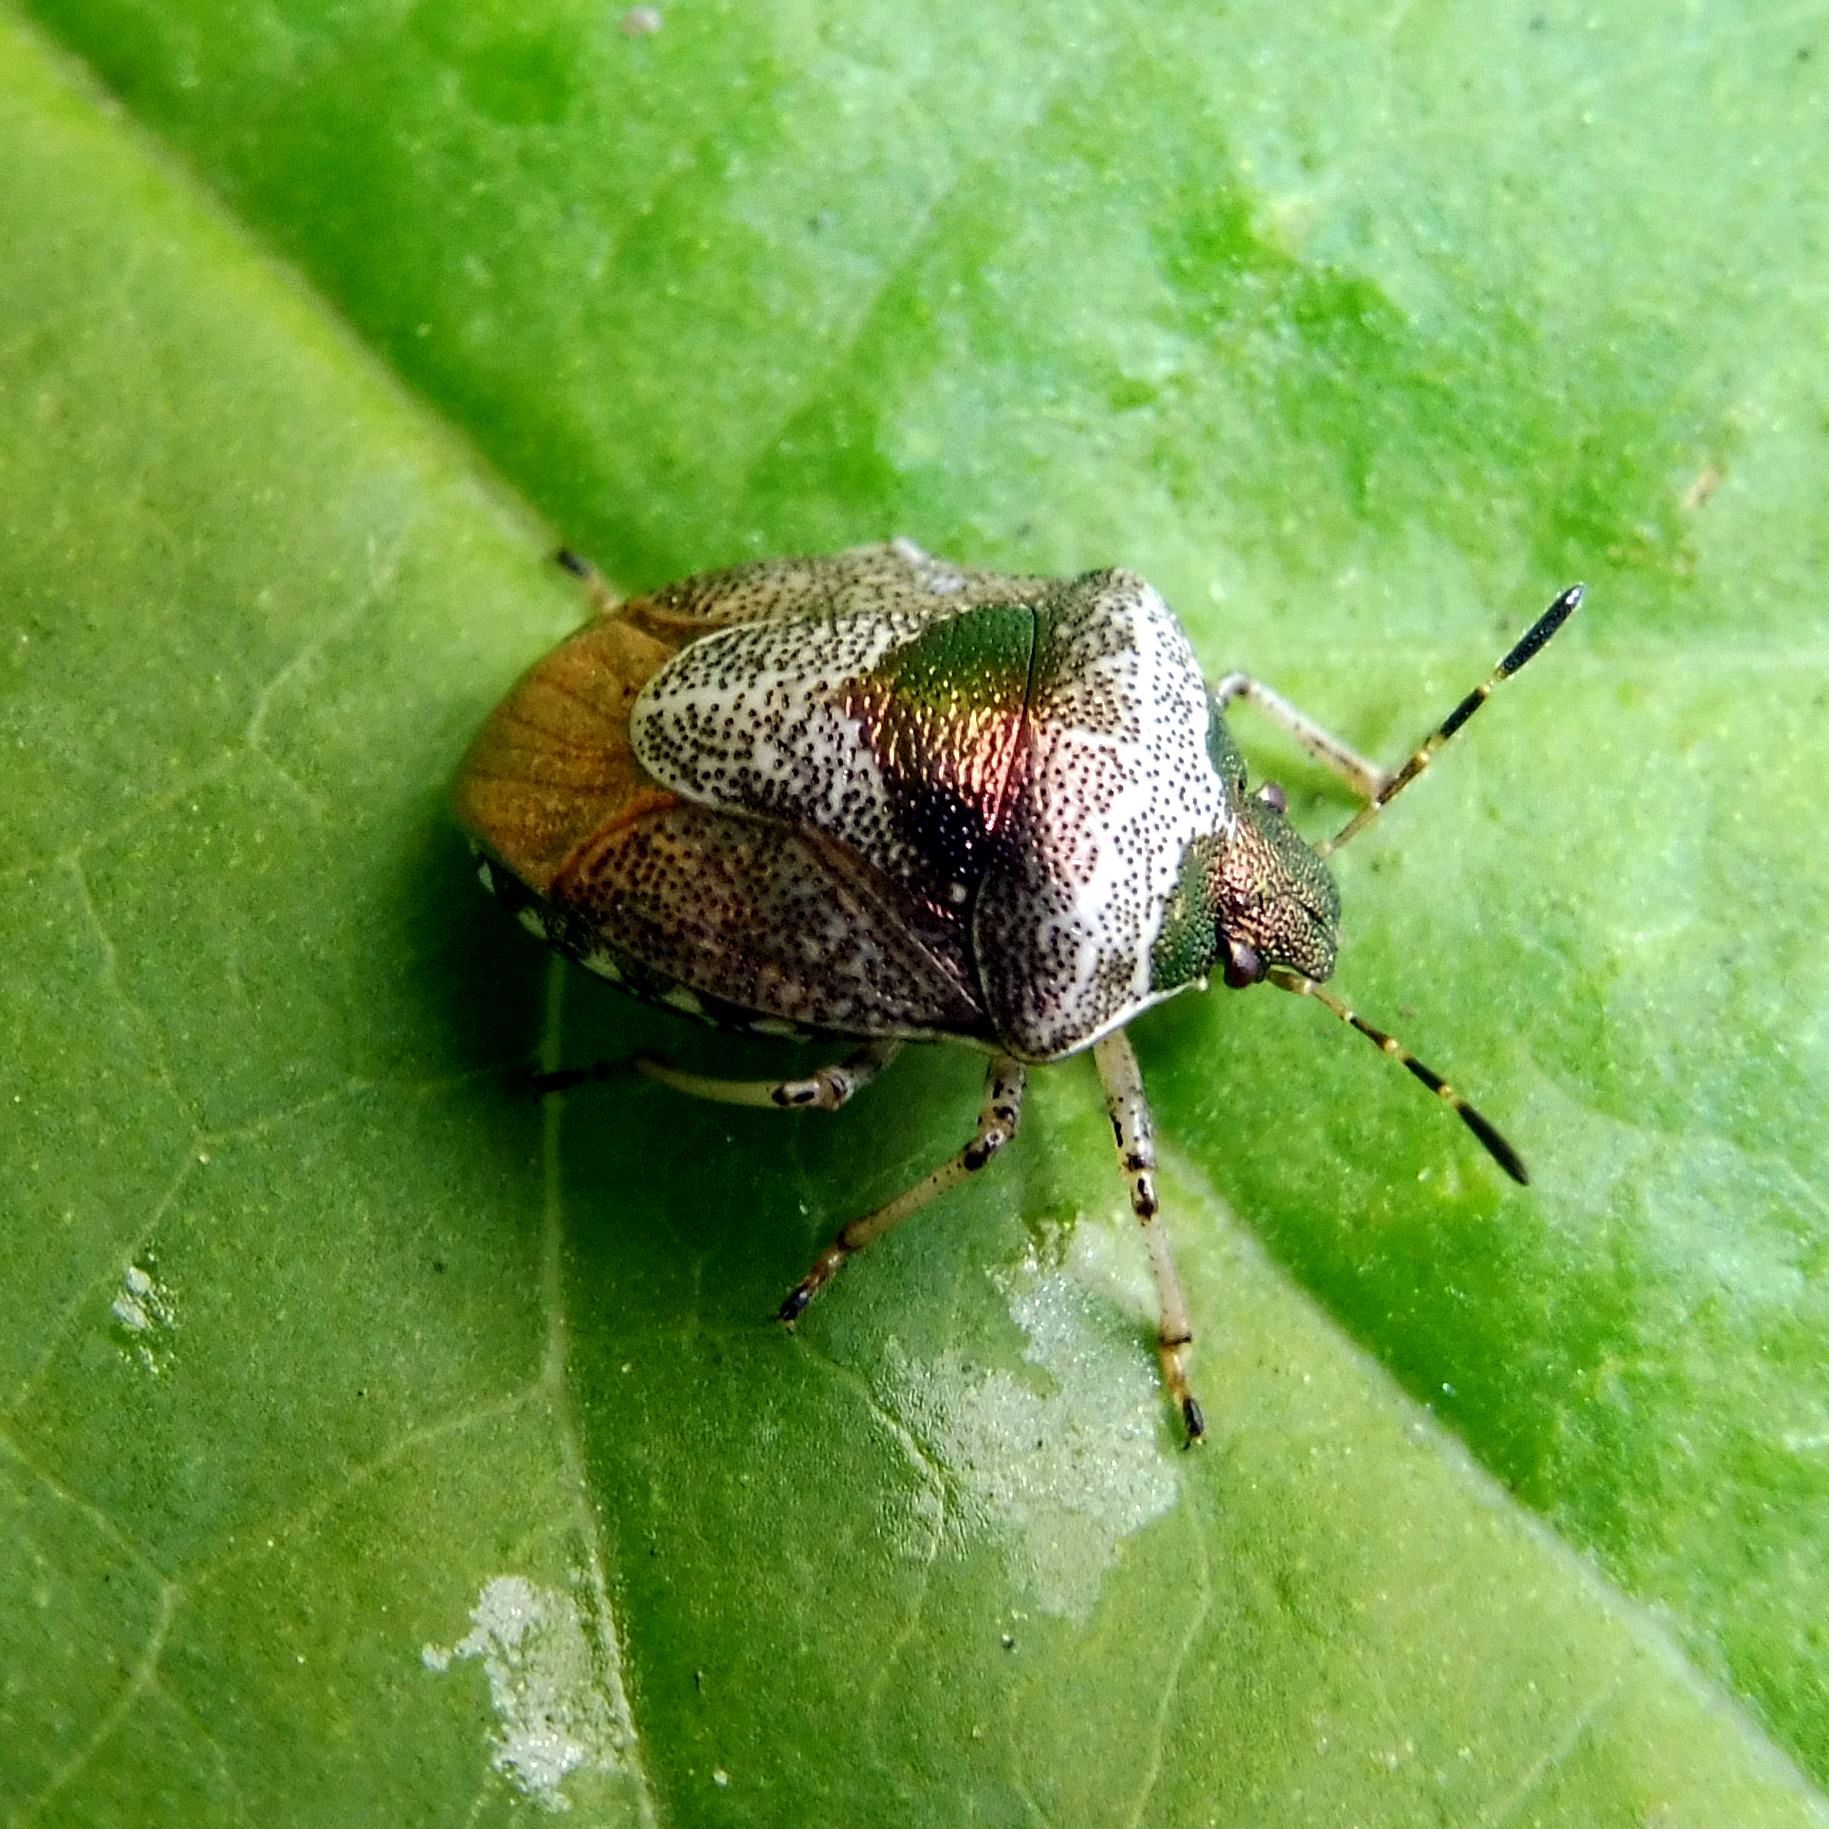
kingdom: Animalia
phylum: Arthropoda
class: Insecta
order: Hemiptera
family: Pentatomidae
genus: Eysarcoris
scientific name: Eysarcoris venustissimus
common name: Woundwort shieldbug
